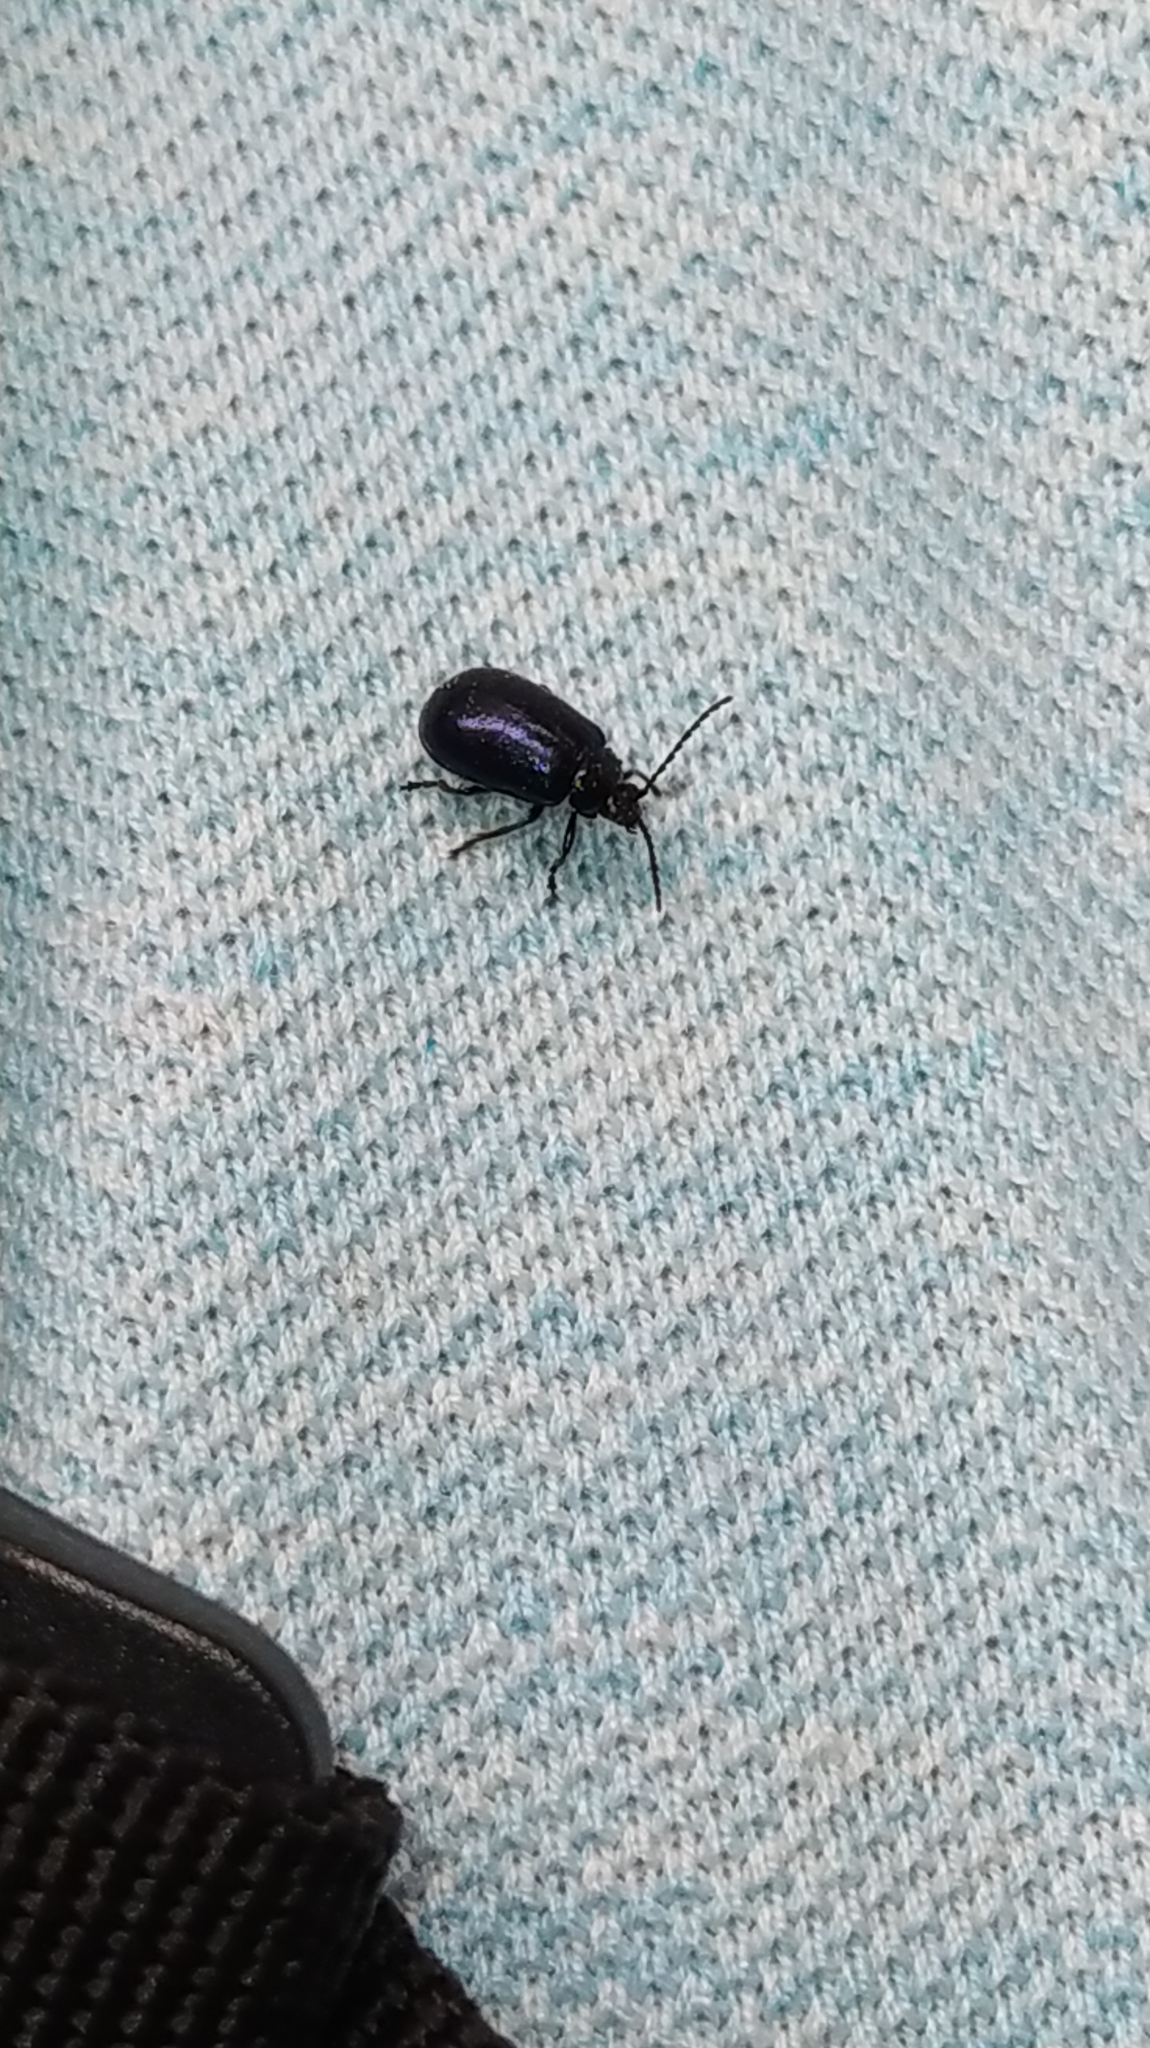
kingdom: Animalia
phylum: Arthropoda
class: Insecta
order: Coleoptera
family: Chrysomelidae
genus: Agelastica
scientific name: Agelastica alni
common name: Alder leaf beetle
